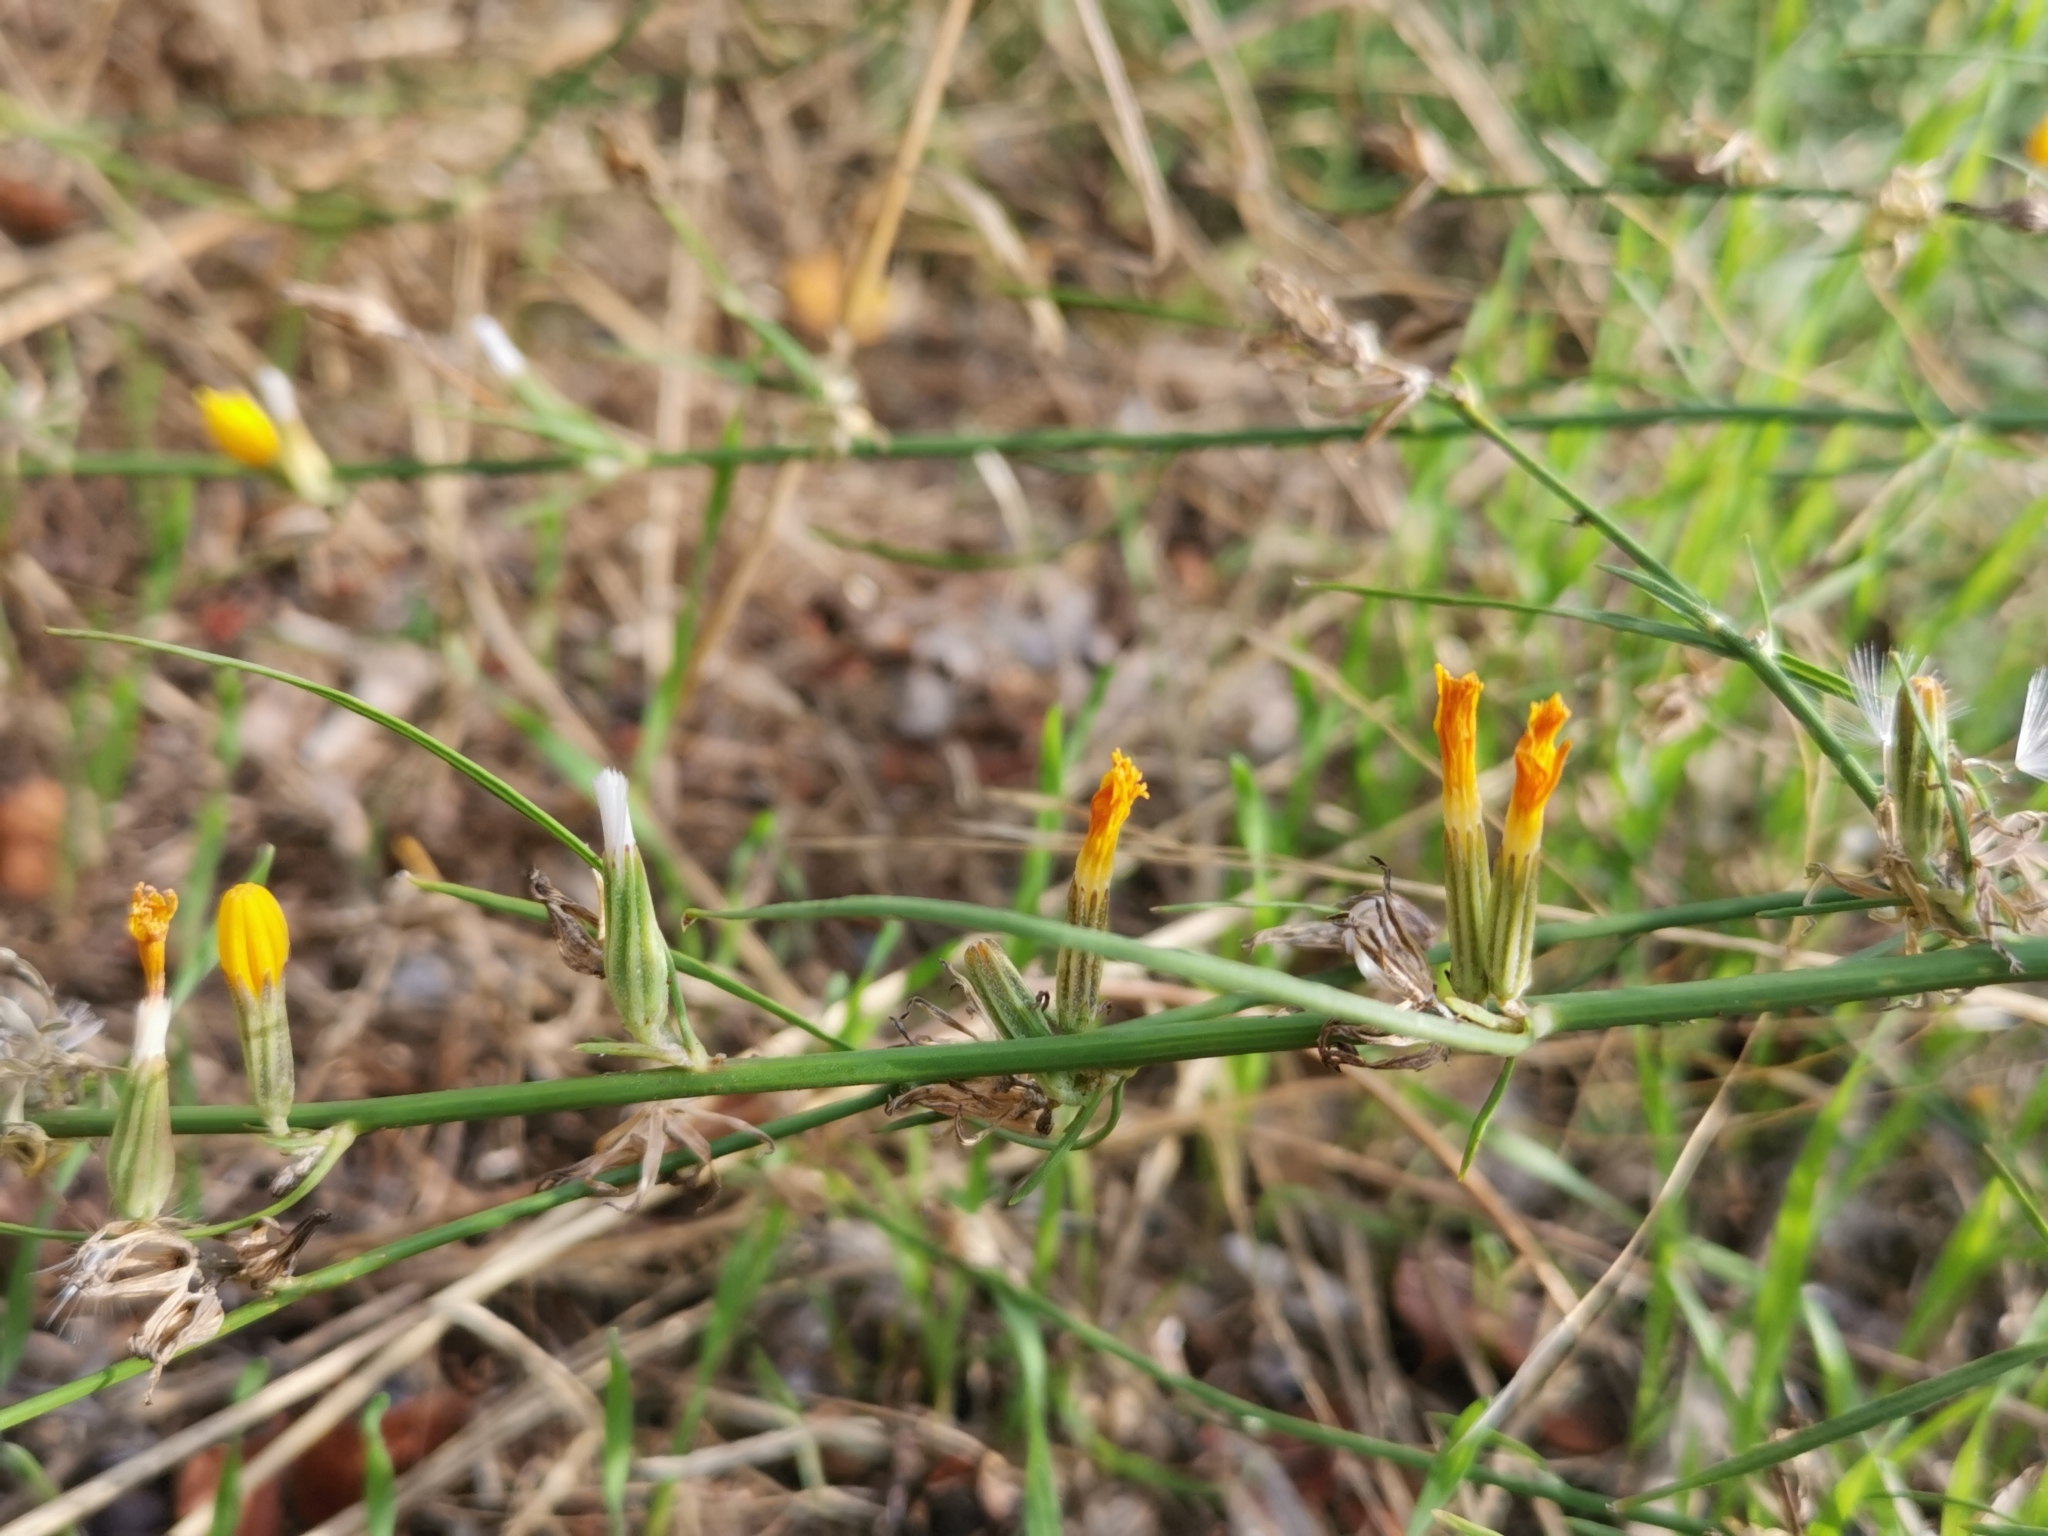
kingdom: Plantae
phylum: Tracheophyta
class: Magnoliopsida
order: Asterales
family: Asteraceae
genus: Chondrilla
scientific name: Chondrilla juncea
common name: Skeleton weed
